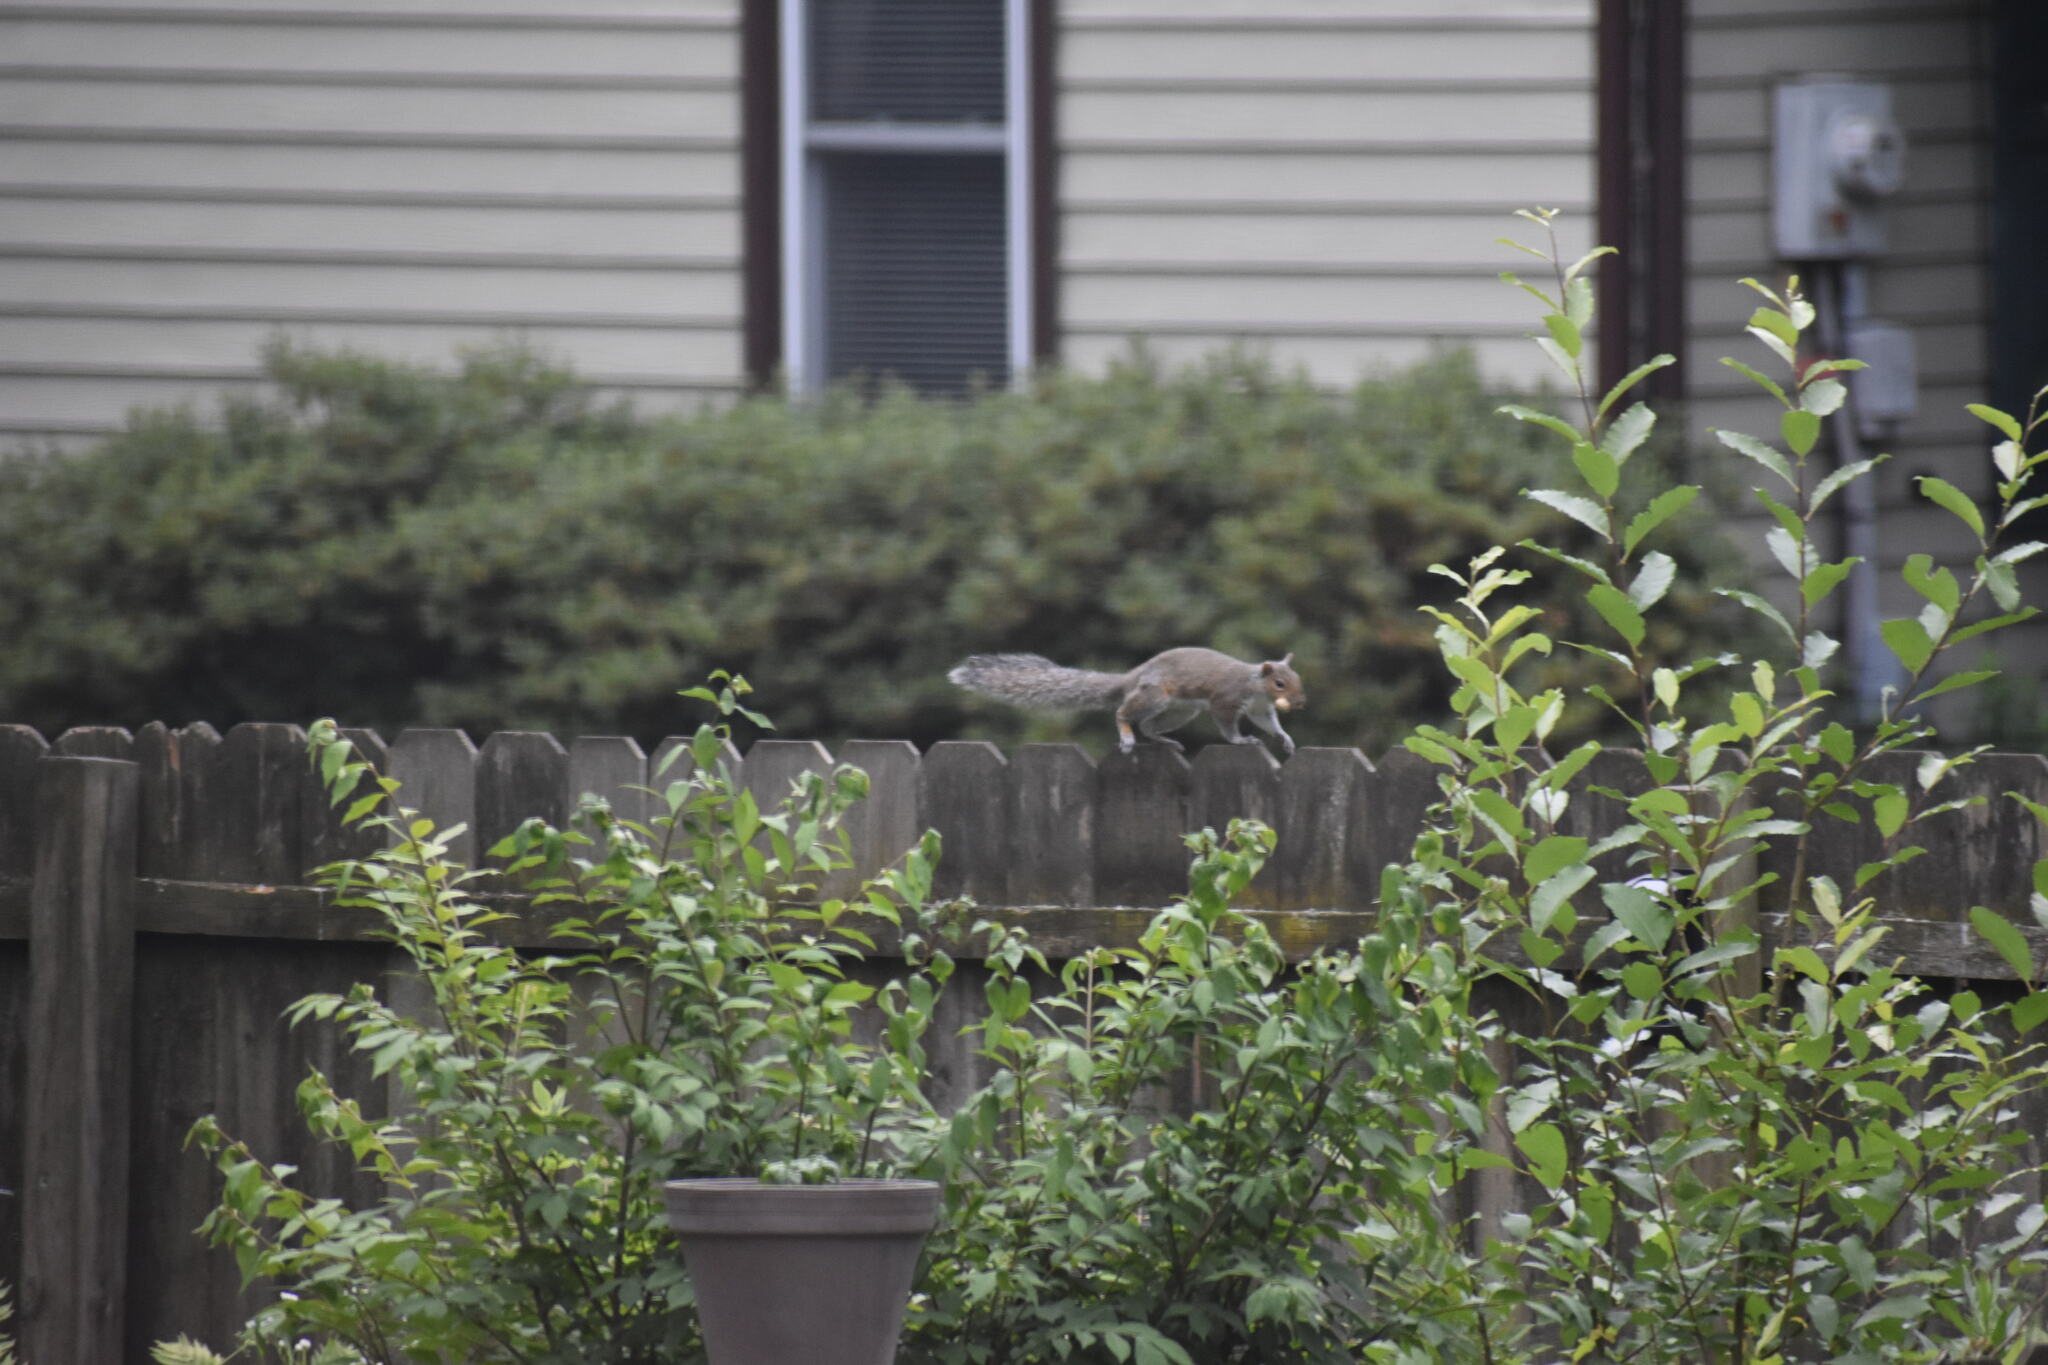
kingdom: Animalia
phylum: Chordata
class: Mammalia
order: Rodentia
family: Sciuridae
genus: Sciurus
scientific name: Sciurus carolinensis
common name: Eastern gray squirrel
